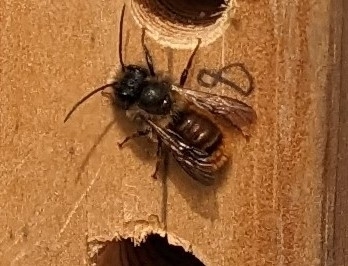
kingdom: Animalia
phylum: Arthropoda
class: Insecta
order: Hymenoptera
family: Megachilidae
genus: Osmia
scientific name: Osmia bicornis
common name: Red mason bee
